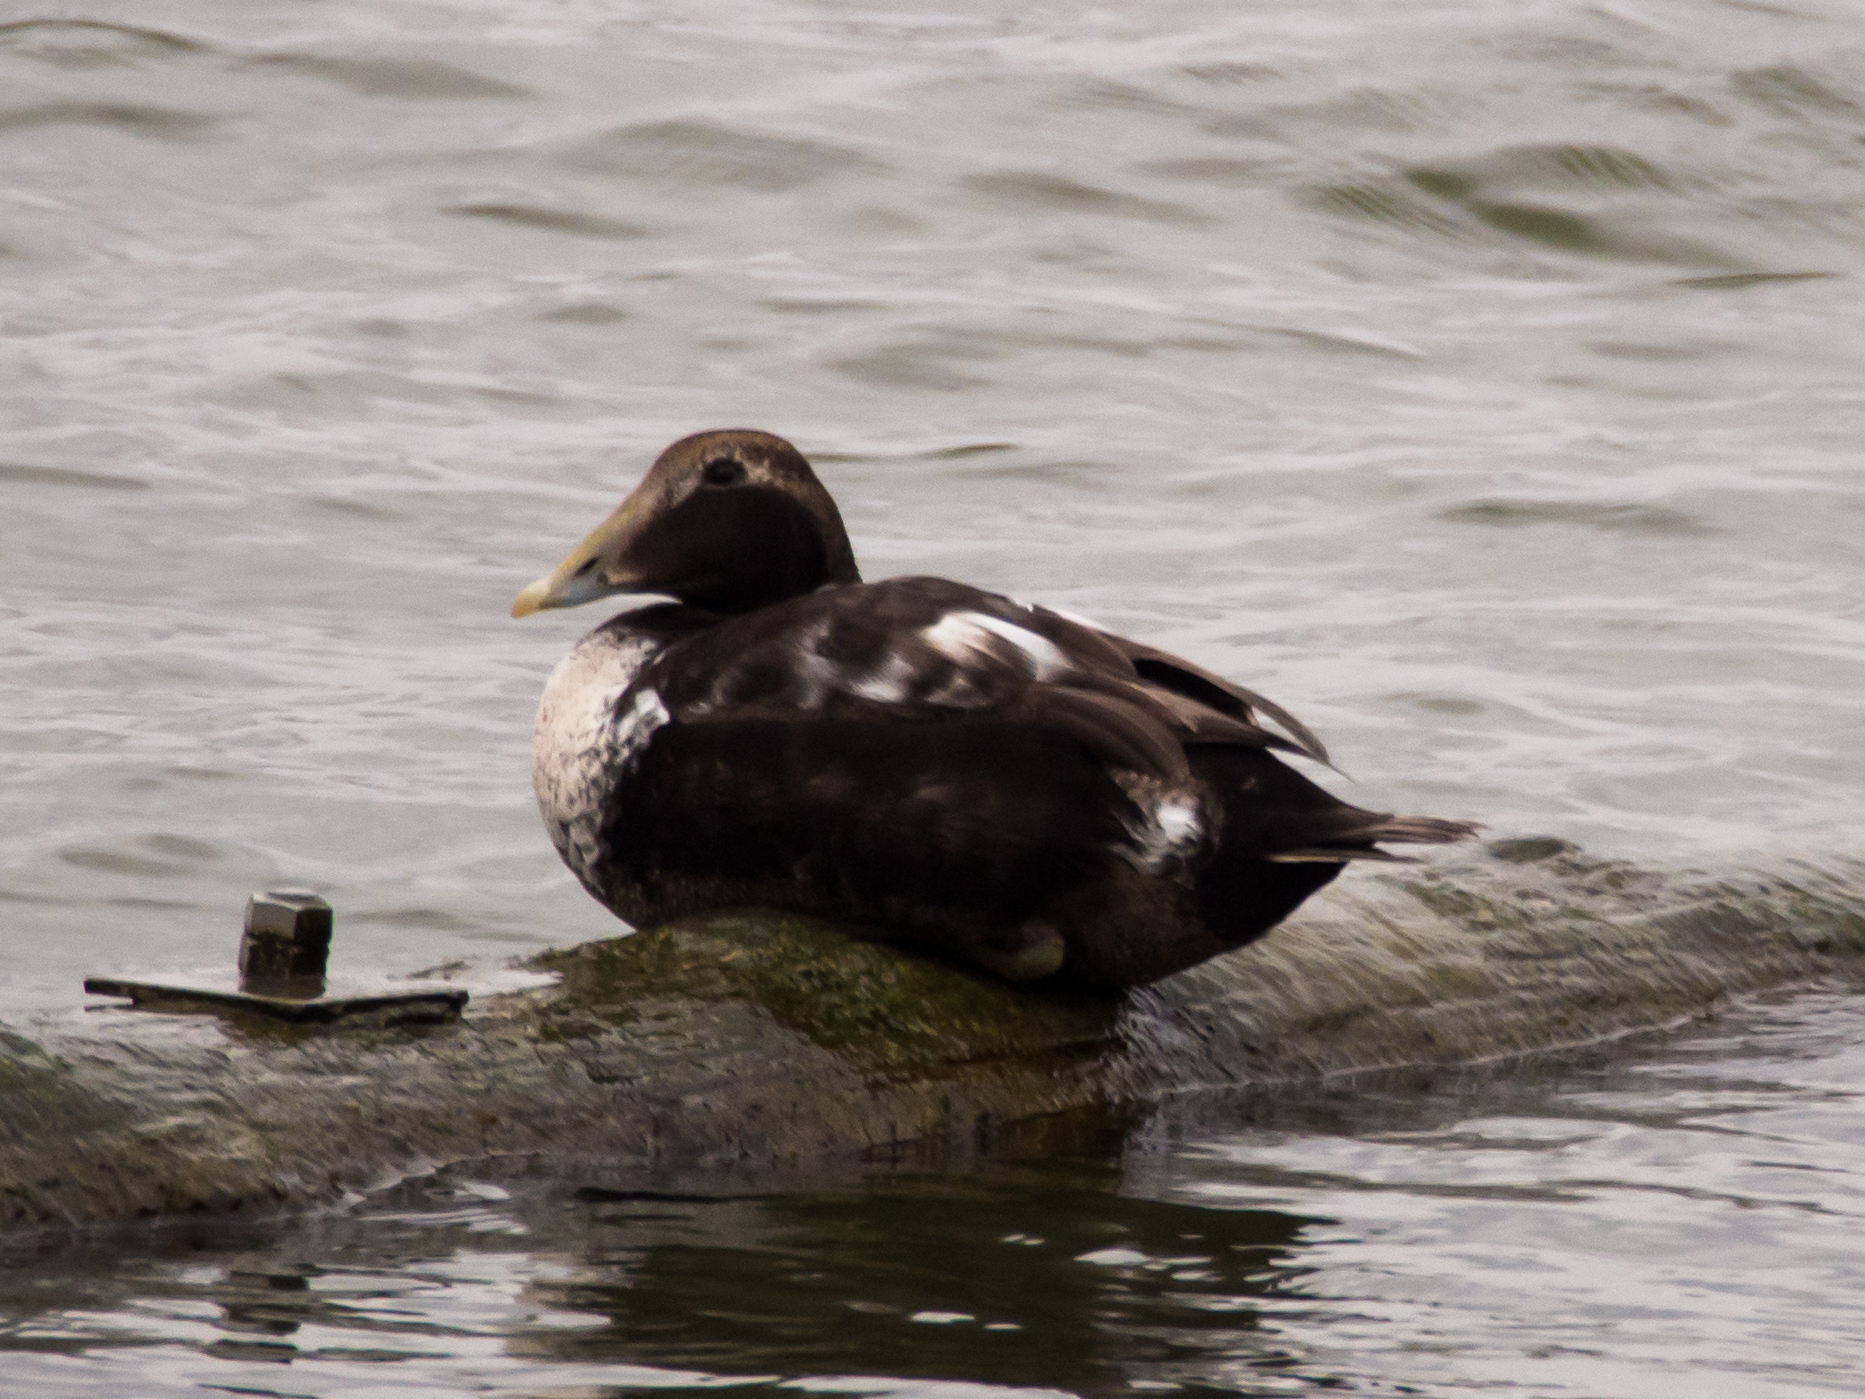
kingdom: Animalia
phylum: Chordata
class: Aves
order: Anseriformes
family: Anatidae
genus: Somateria
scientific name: Somateria mollissima
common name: Common eider
